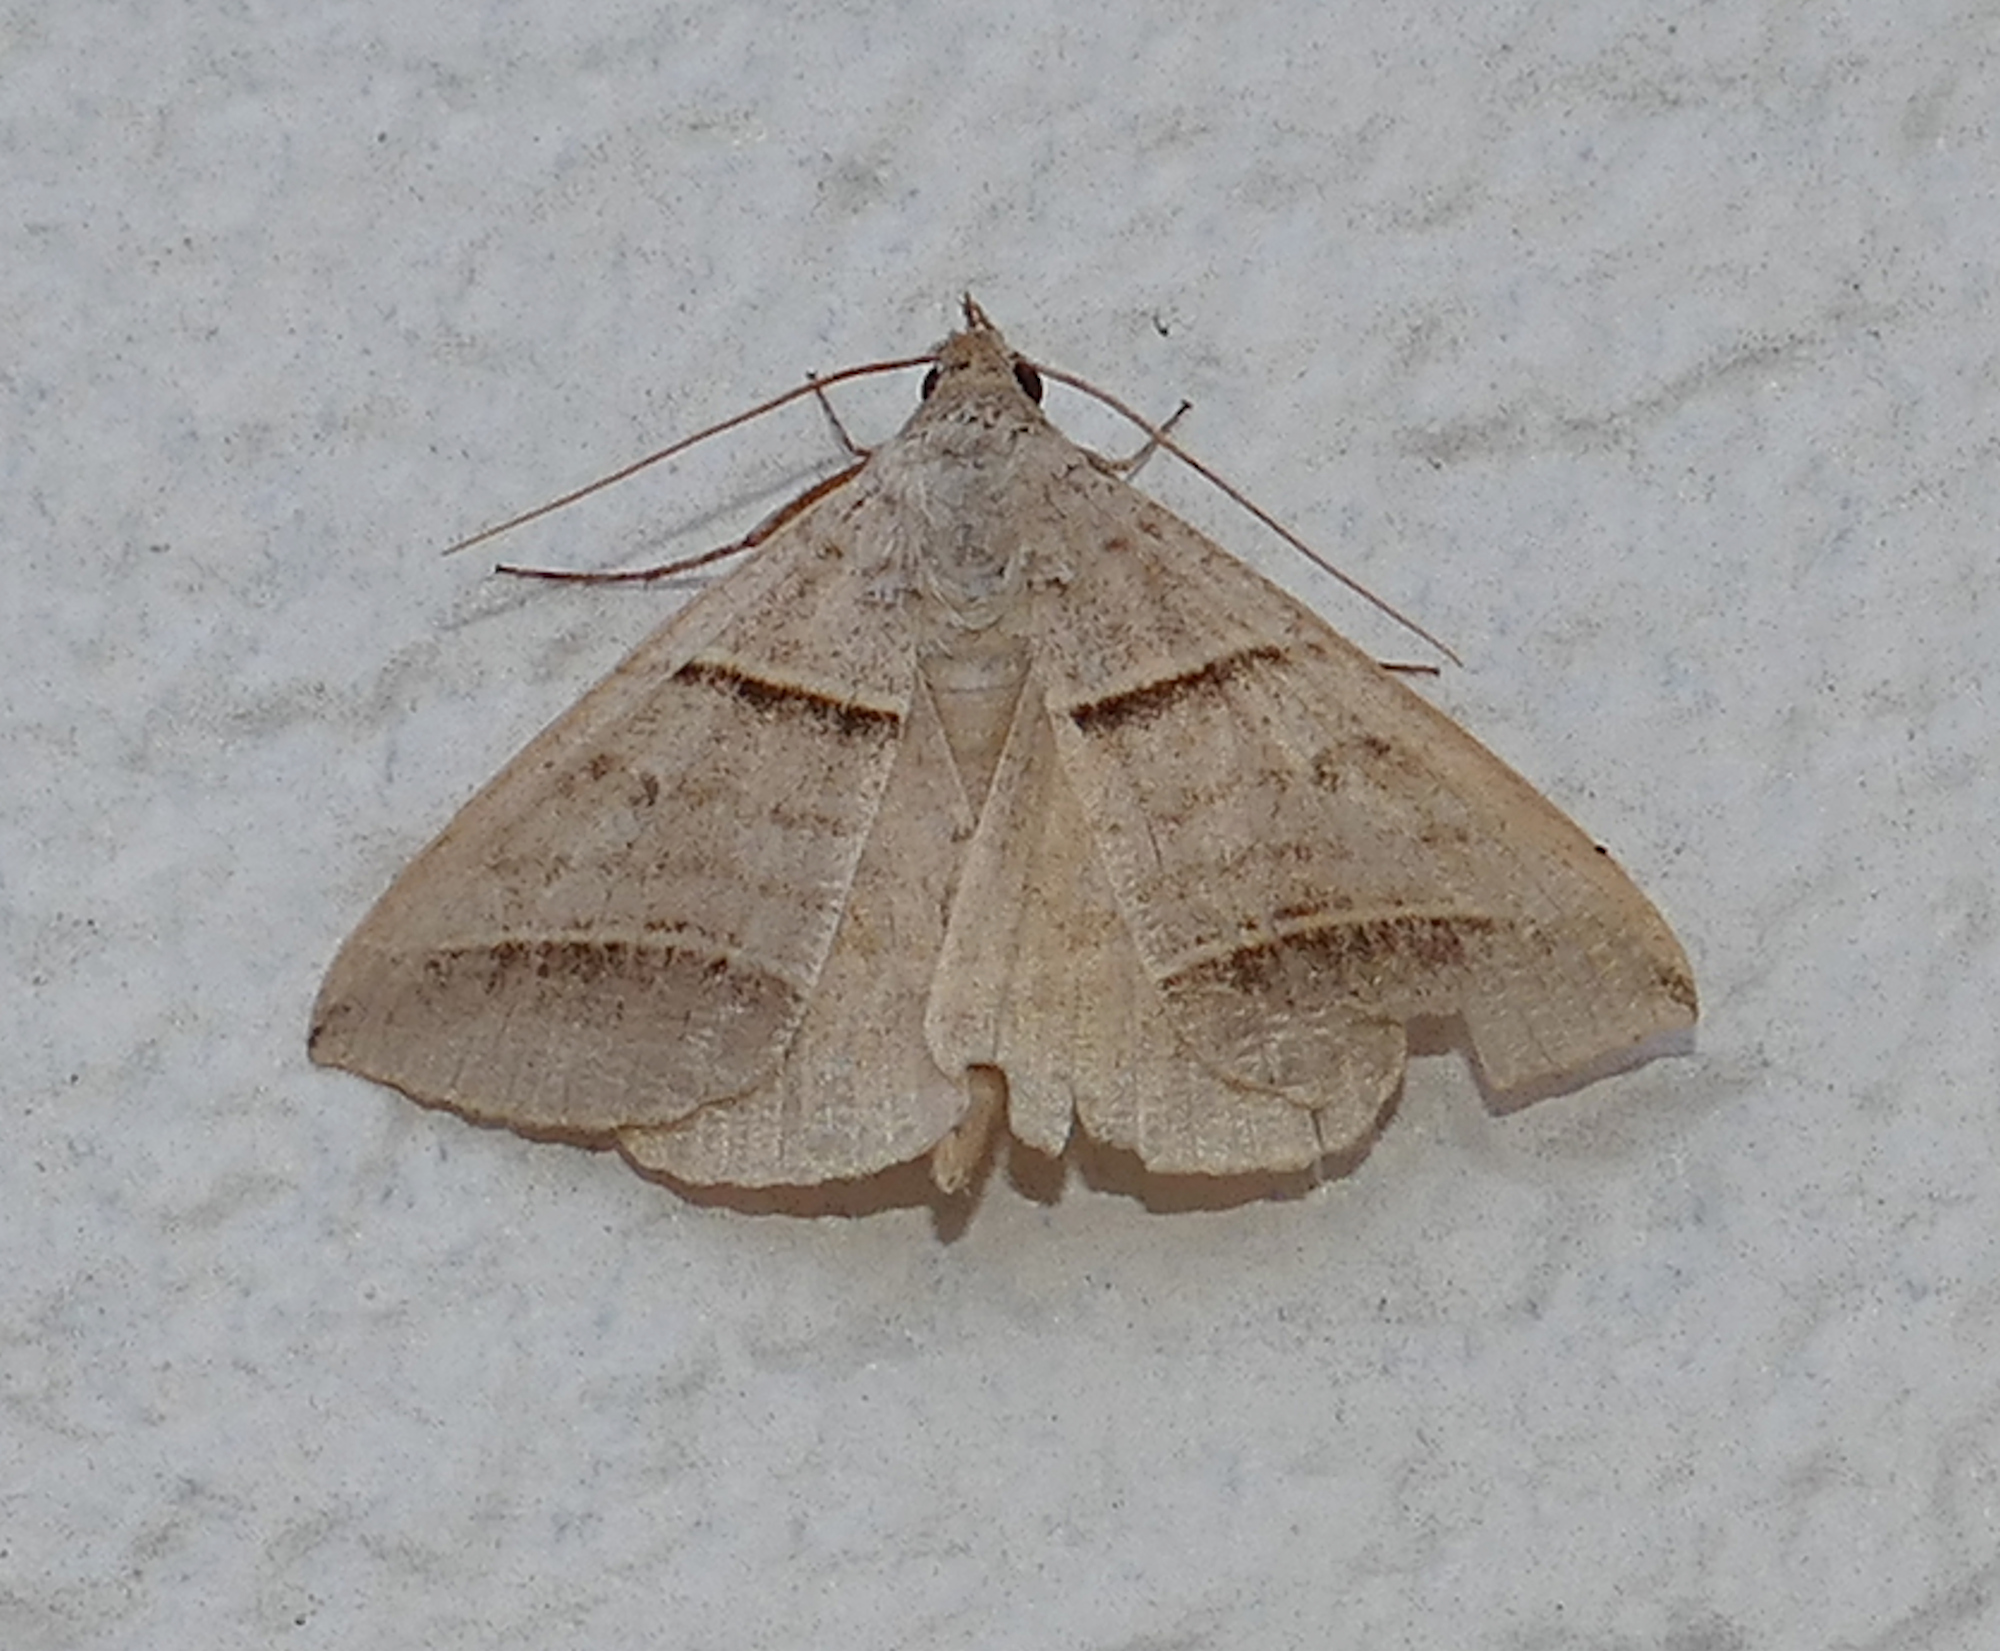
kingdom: Animalia
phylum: Arthropoda
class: Insecta
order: Lepidoptera
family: Erebidae
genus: Ptichodis
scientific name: Ptichodis vinculum
